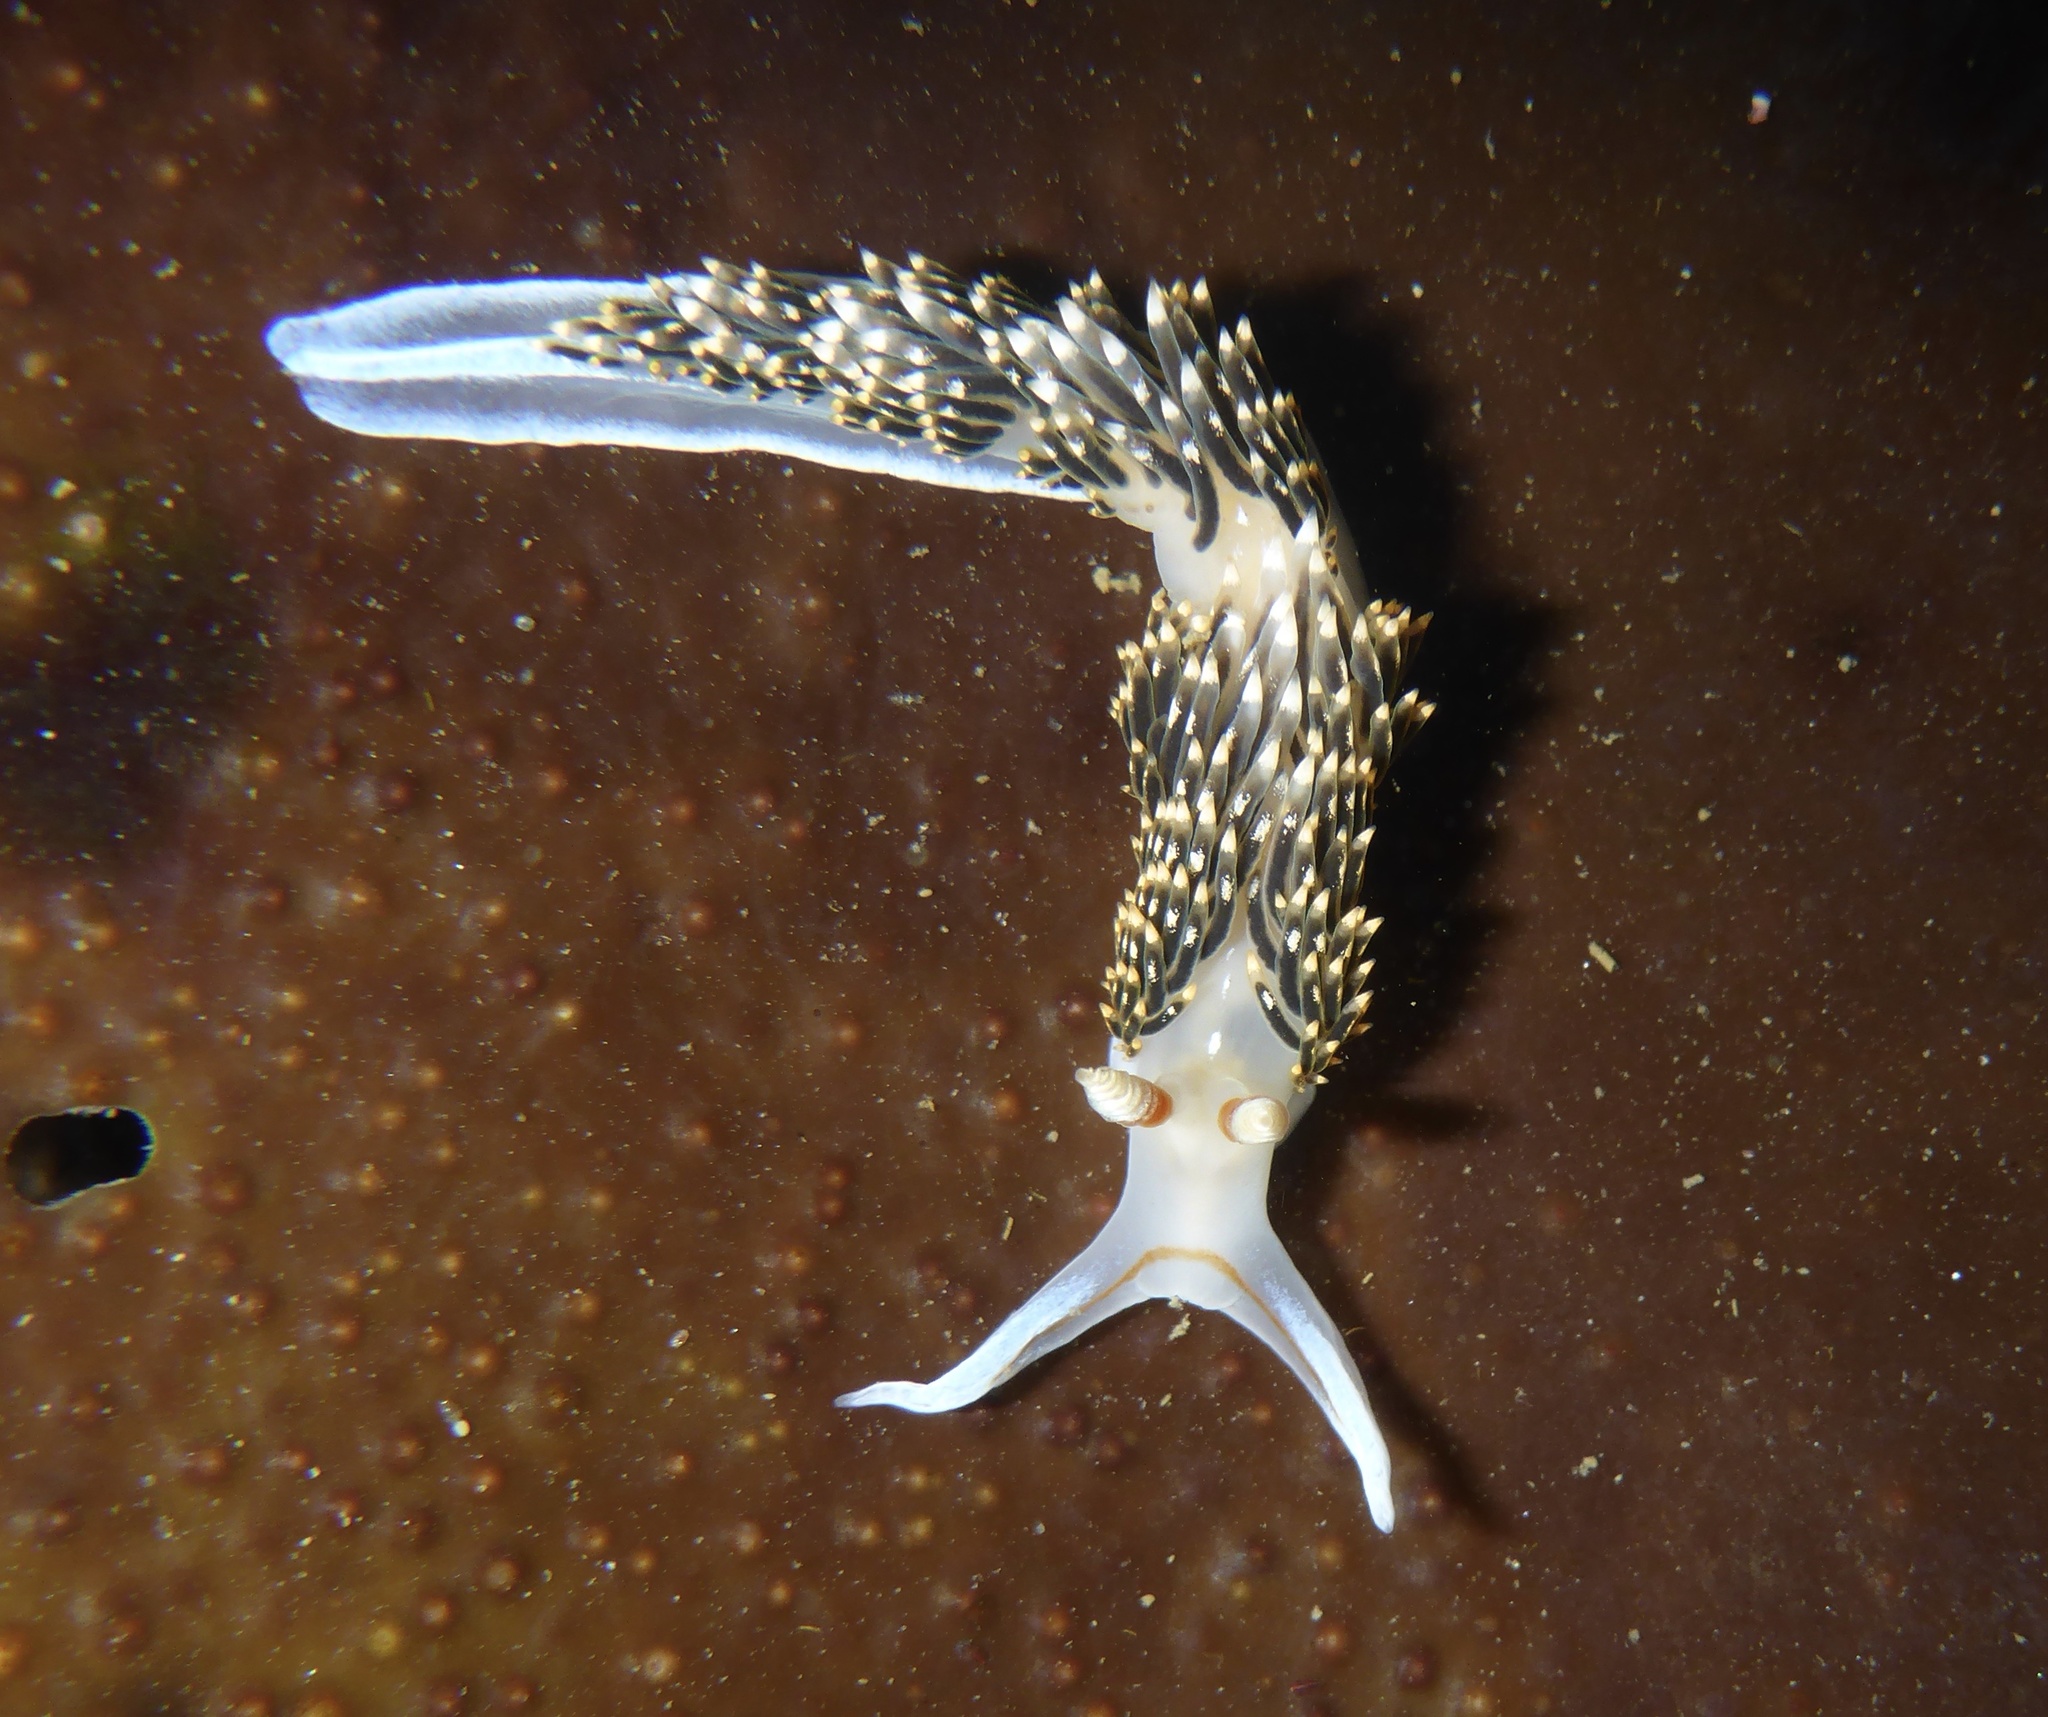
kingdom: Animalia
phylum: Mollusca
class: Gastropoda
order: Nudibranchia
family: Facelinidae
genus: Phidiana
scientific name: Phidiana hiltoni
